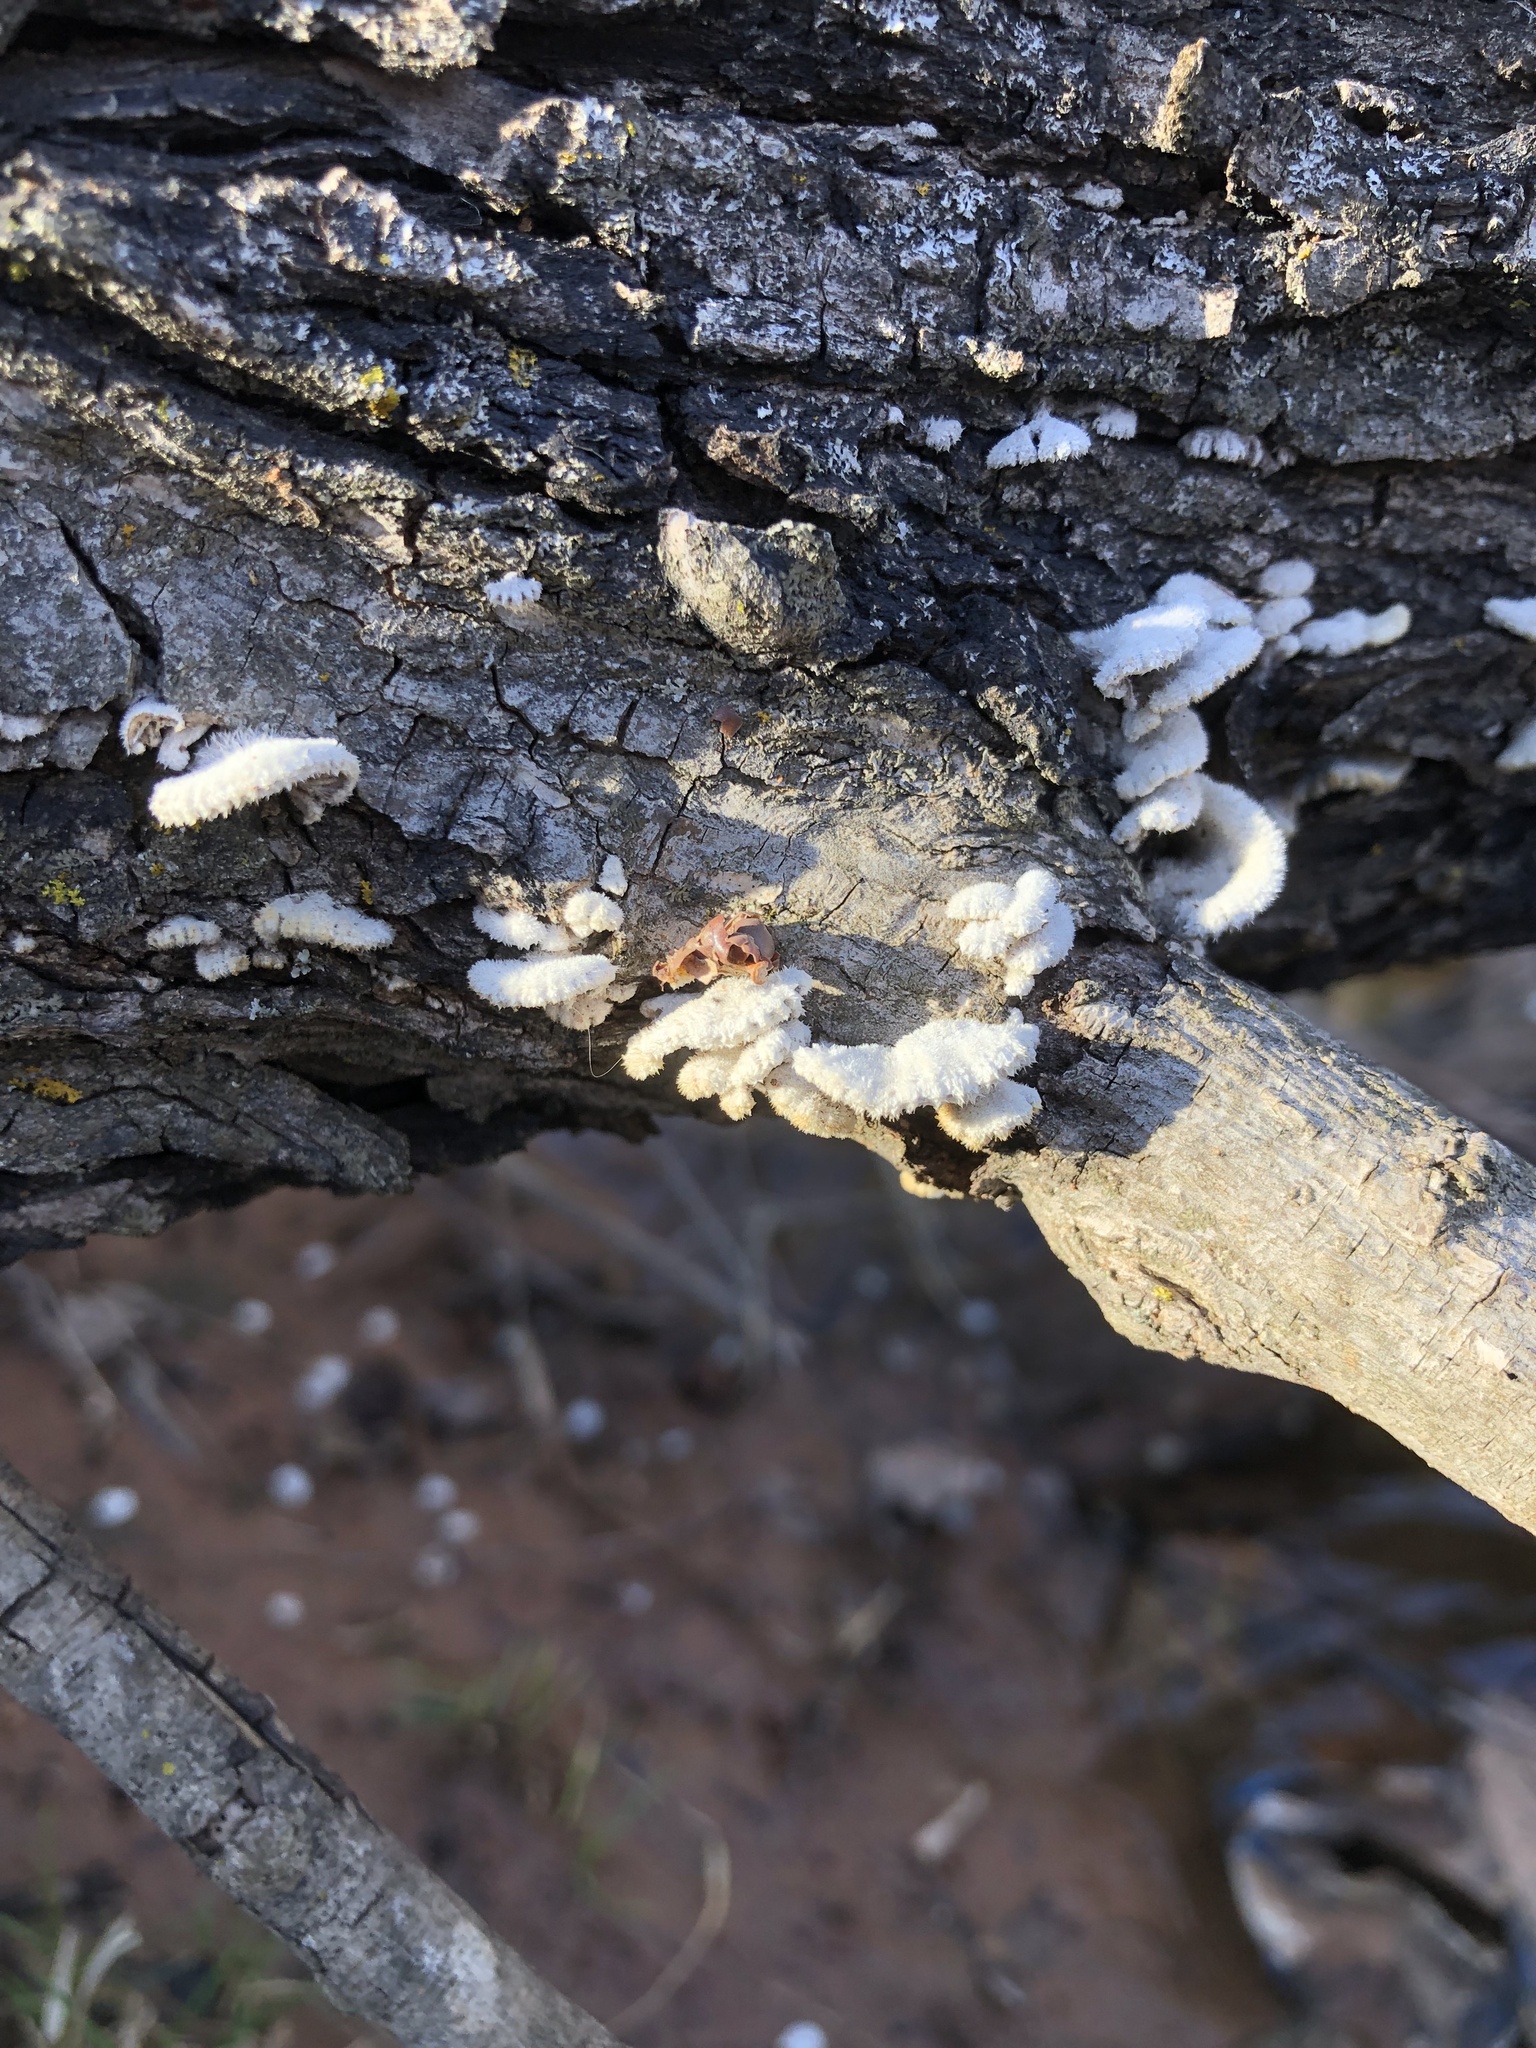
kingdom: Fungi
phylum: Basidiomycota
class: Agaricomycetes
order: Agaricales
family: Schizophyllaceae
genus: Schizophyllum
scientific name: Schizophyllum commune
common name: Common porecrust
